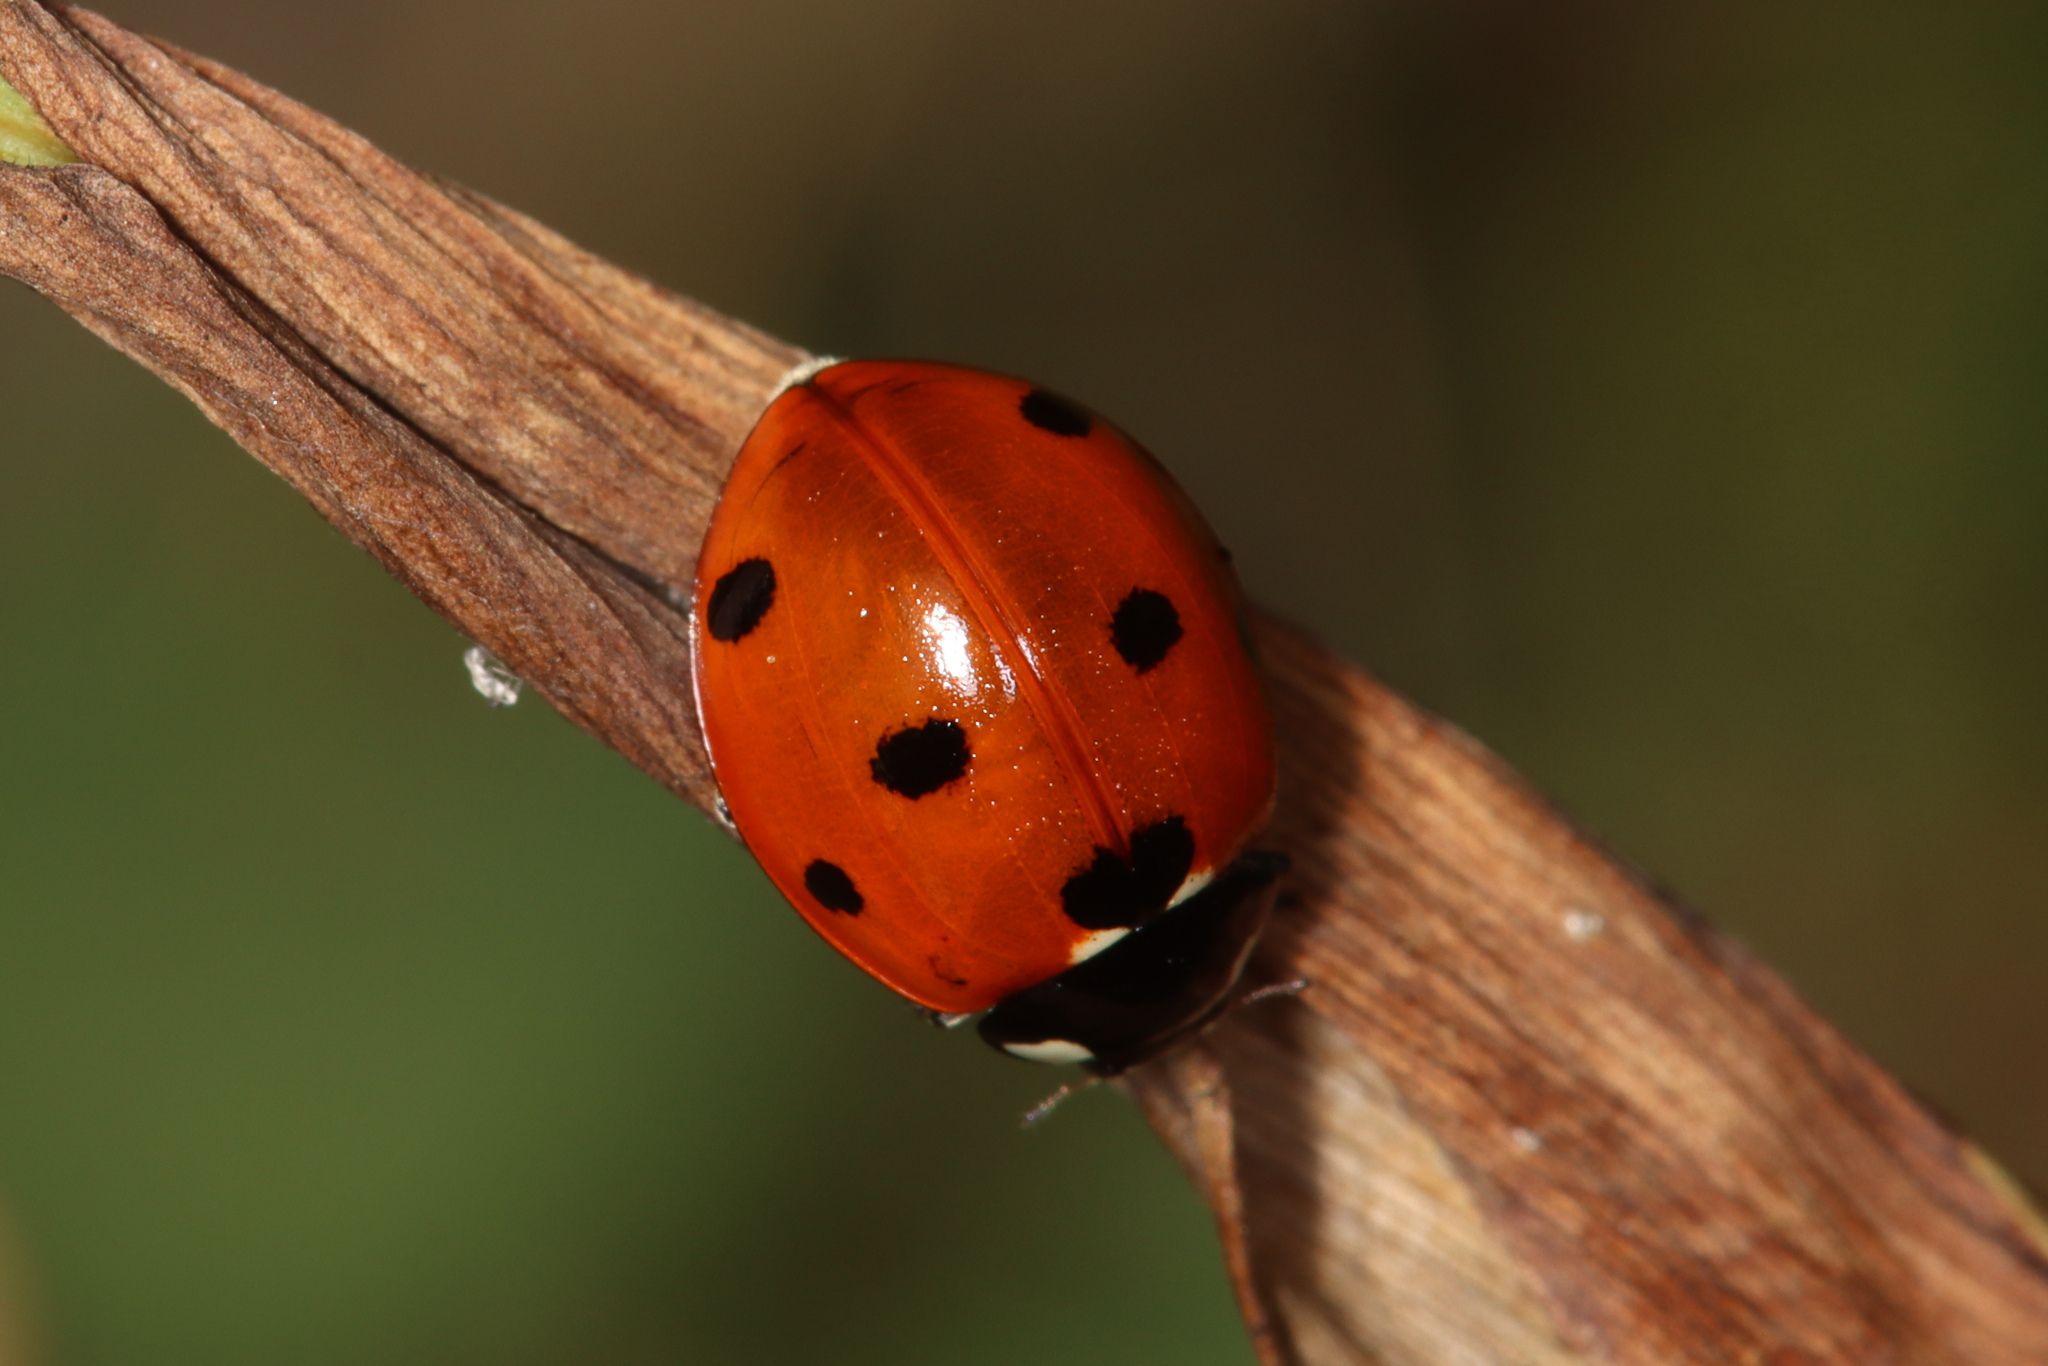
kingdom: Animalia
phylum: Arthropoda
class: Insecta
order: Coleoptera
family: Coccinellidae
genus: Coccinella
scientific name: Coccinella septempunctata
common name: Sevenspotted lady beetle
